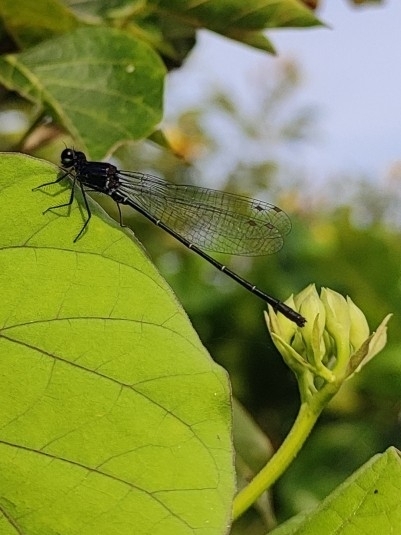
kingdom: Animalia
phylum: Arthropoda
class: Insecta
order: Odonata
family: Platycnemididae
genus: Onychargia
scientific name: Onychargia atrocyana
